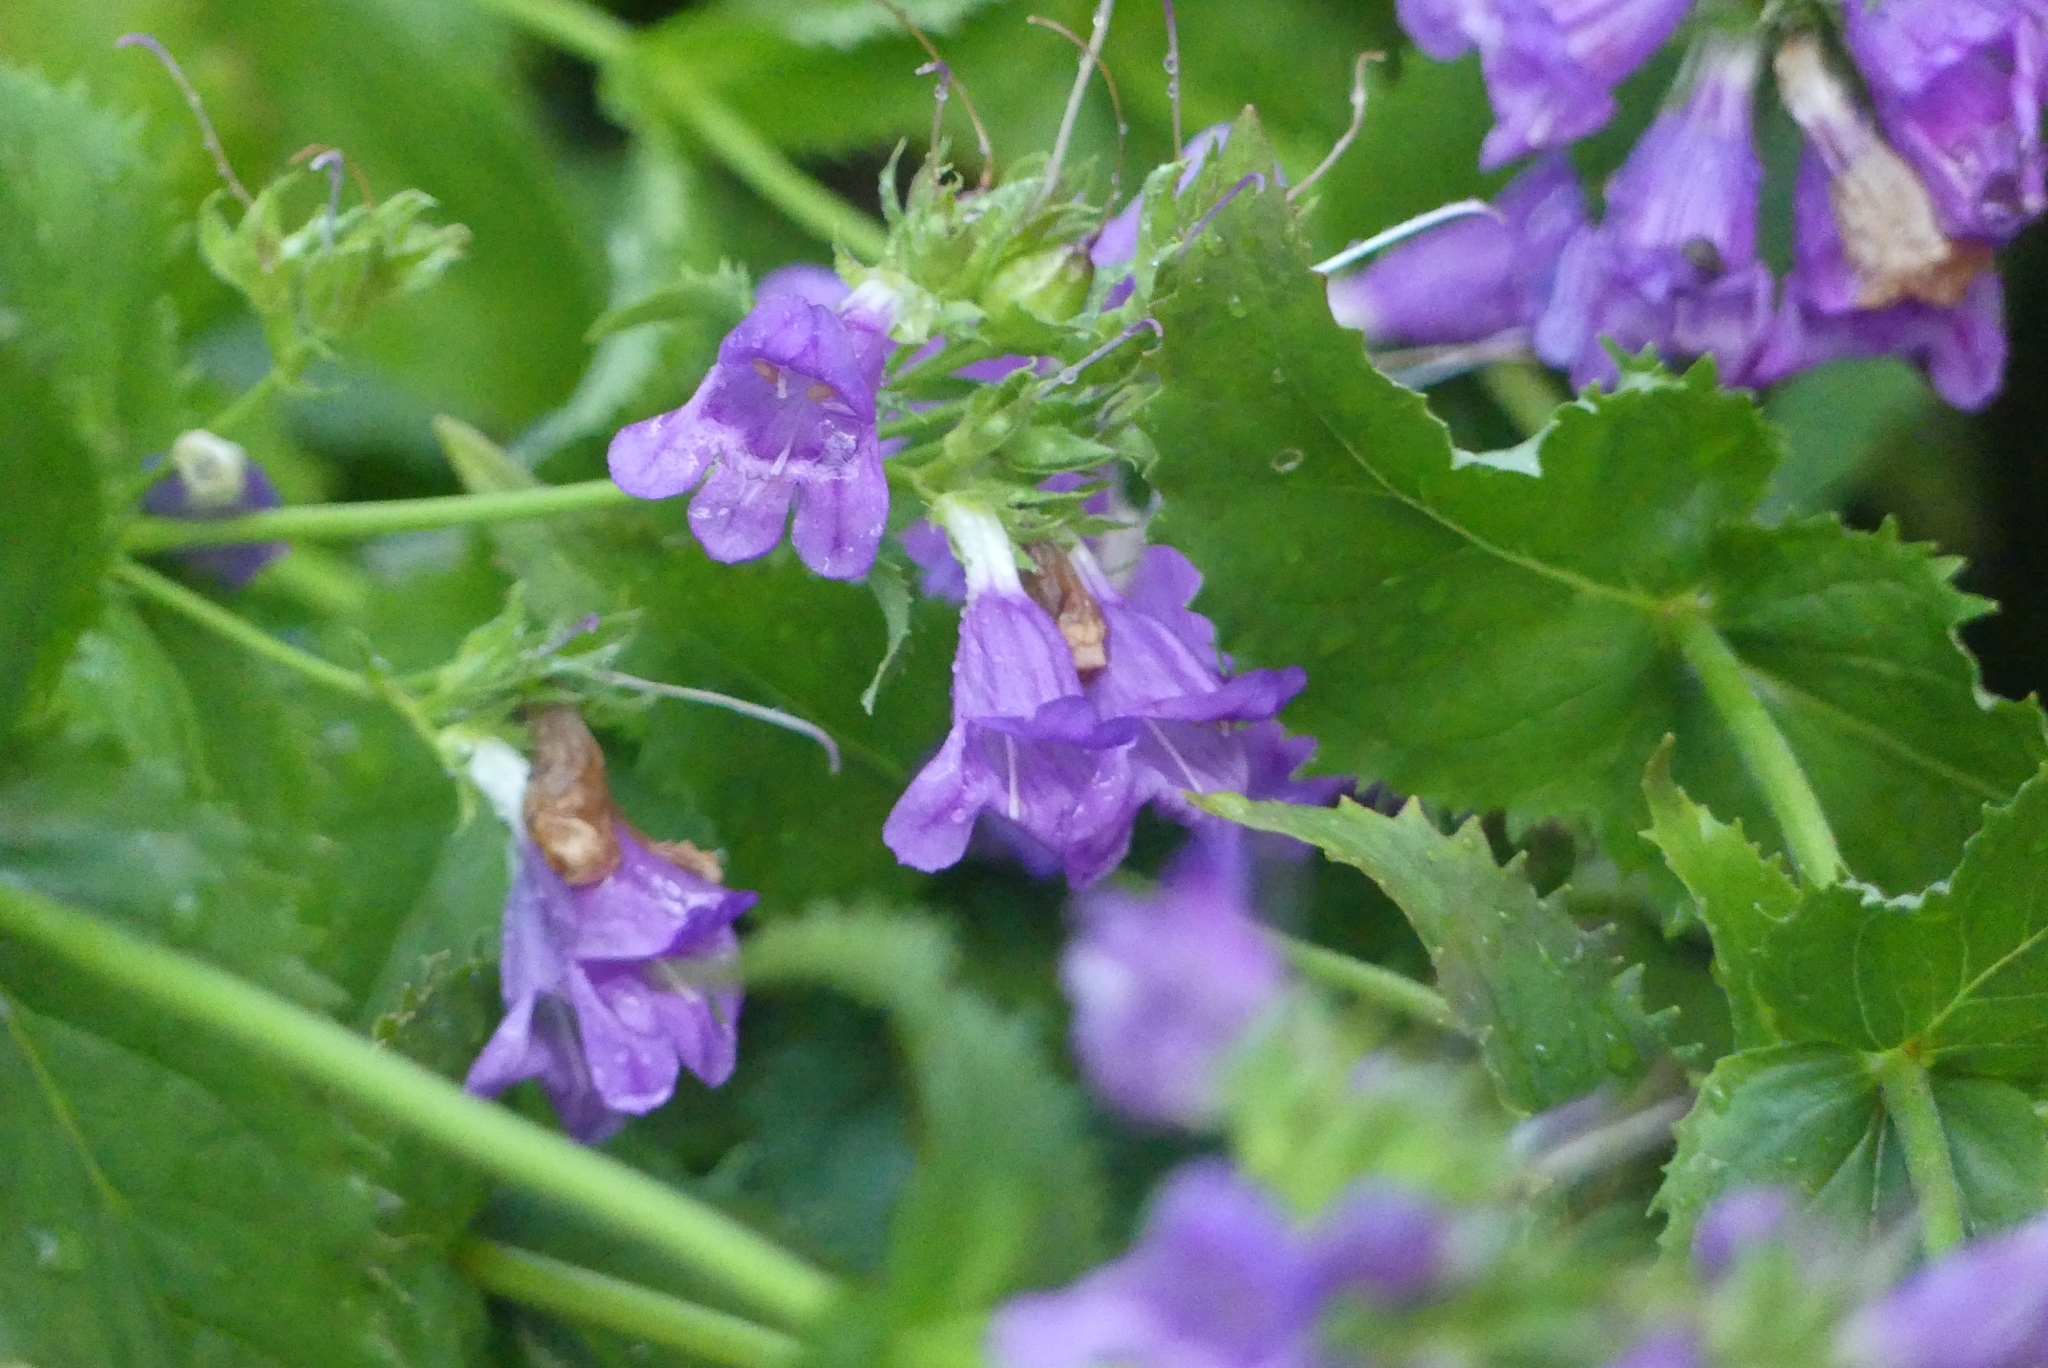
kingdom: Plantae
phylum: Tracheophyta
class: Magnoliopsida
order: Lamiales
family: Plantaginaceae
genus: Penstemon
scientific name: Penstemon serrulatus
